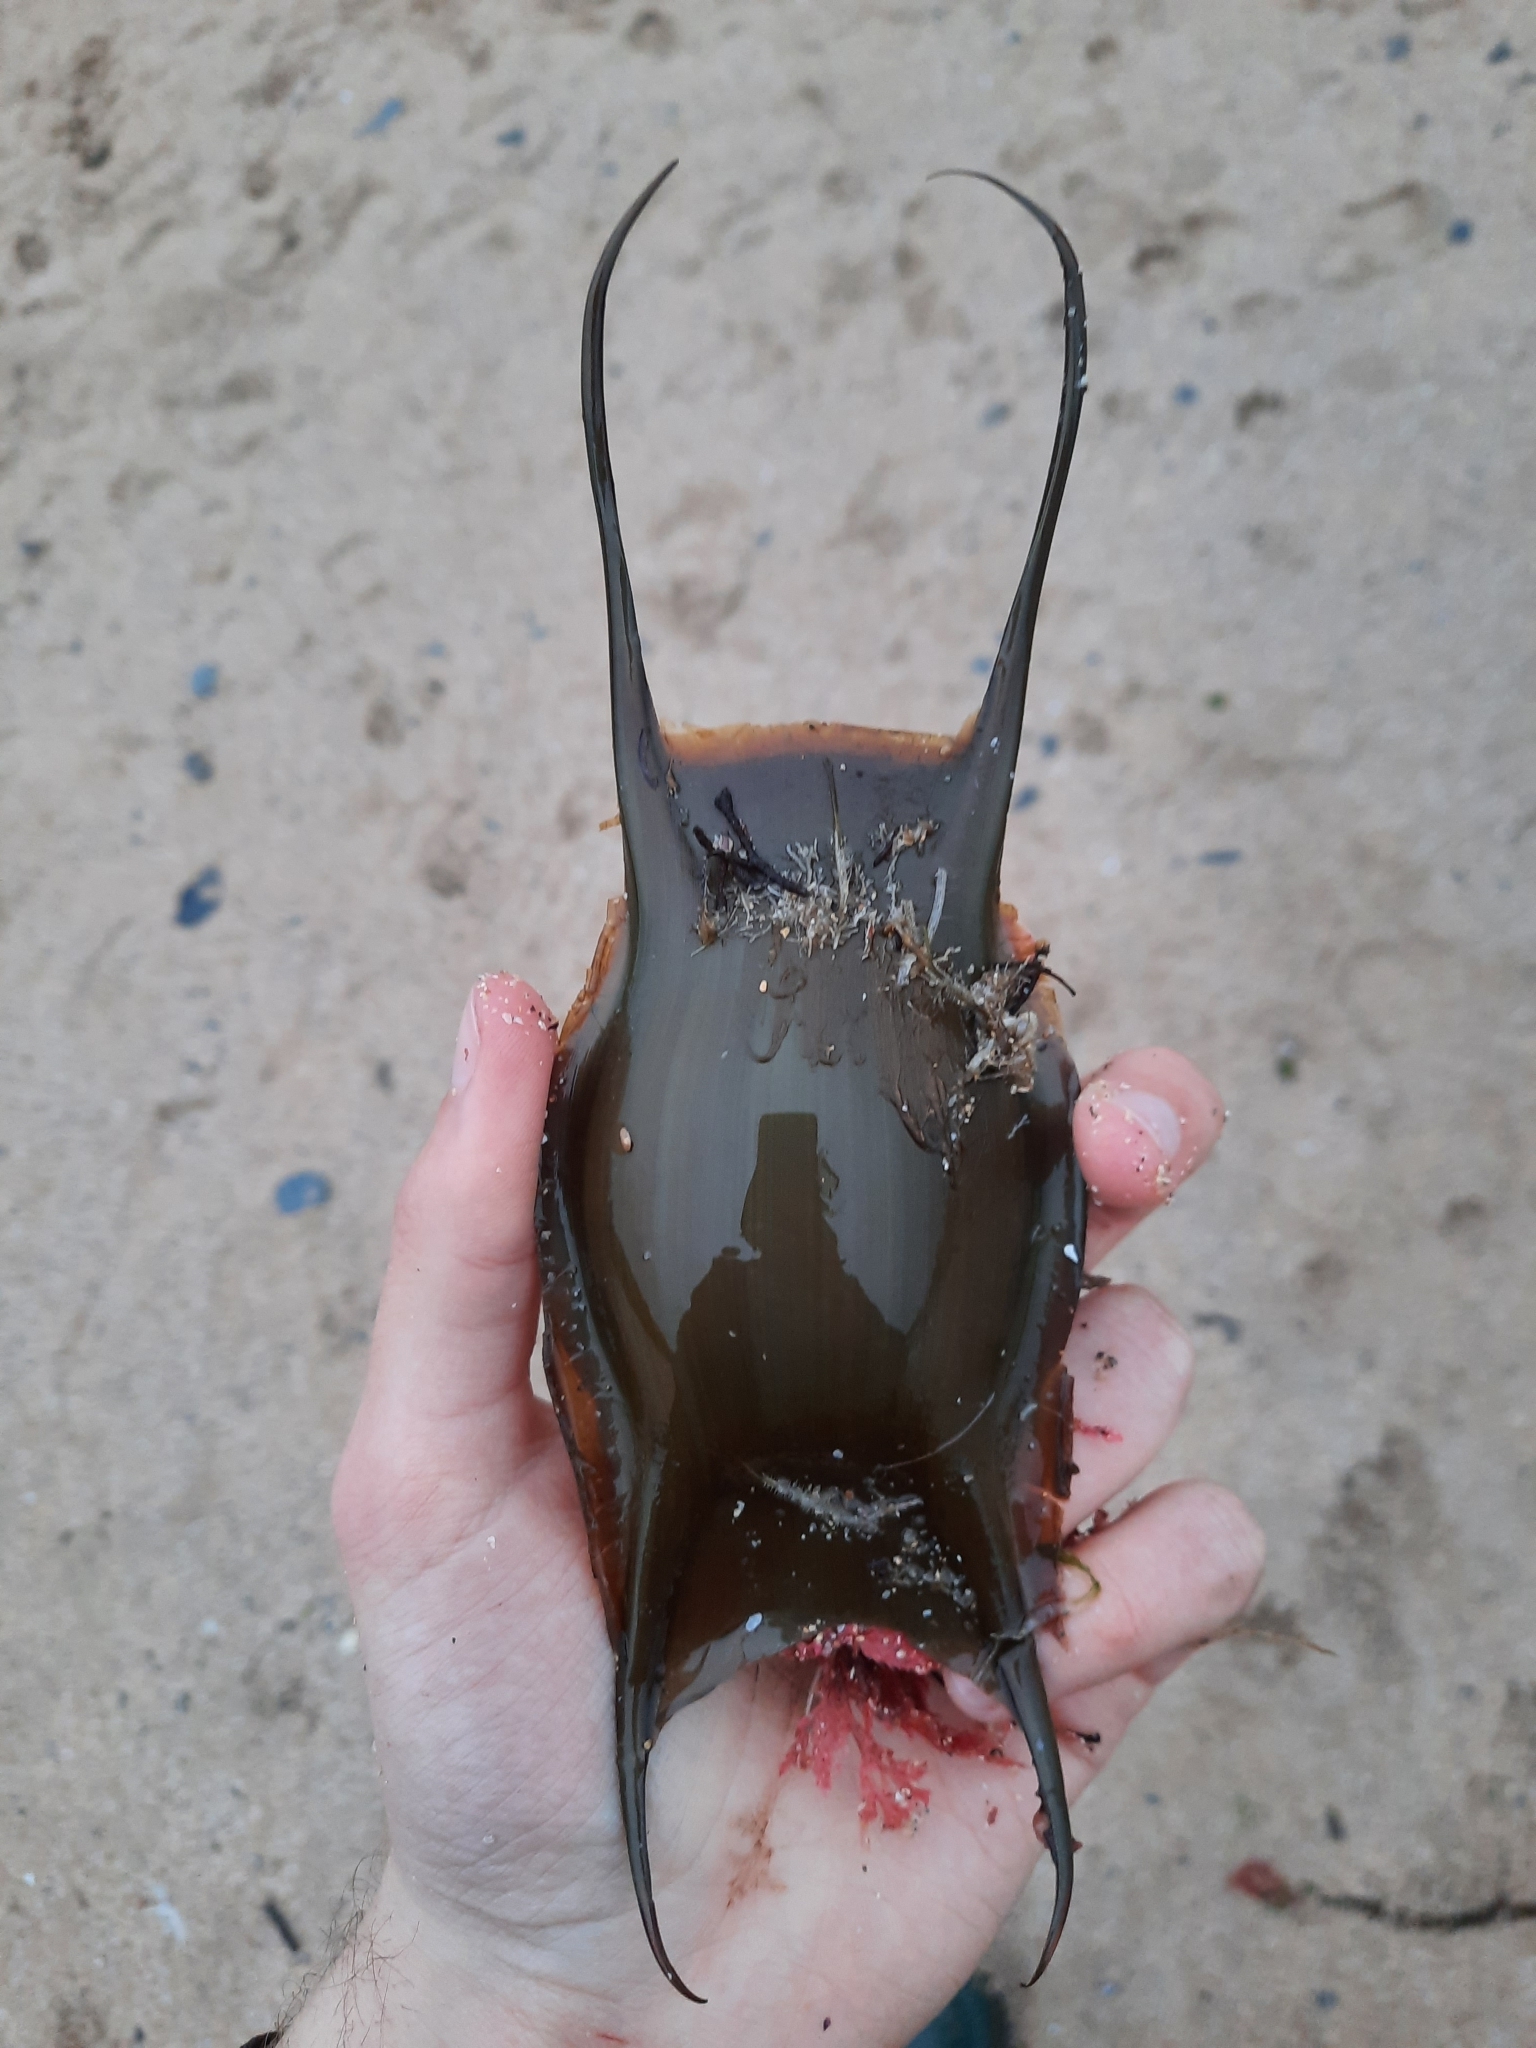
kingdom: Animalia
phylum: Chordata
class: Elasmobranchii
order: Rajiformes
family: Rajidae
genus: Raja
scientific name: Raja brachyura
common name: Blonde ray
